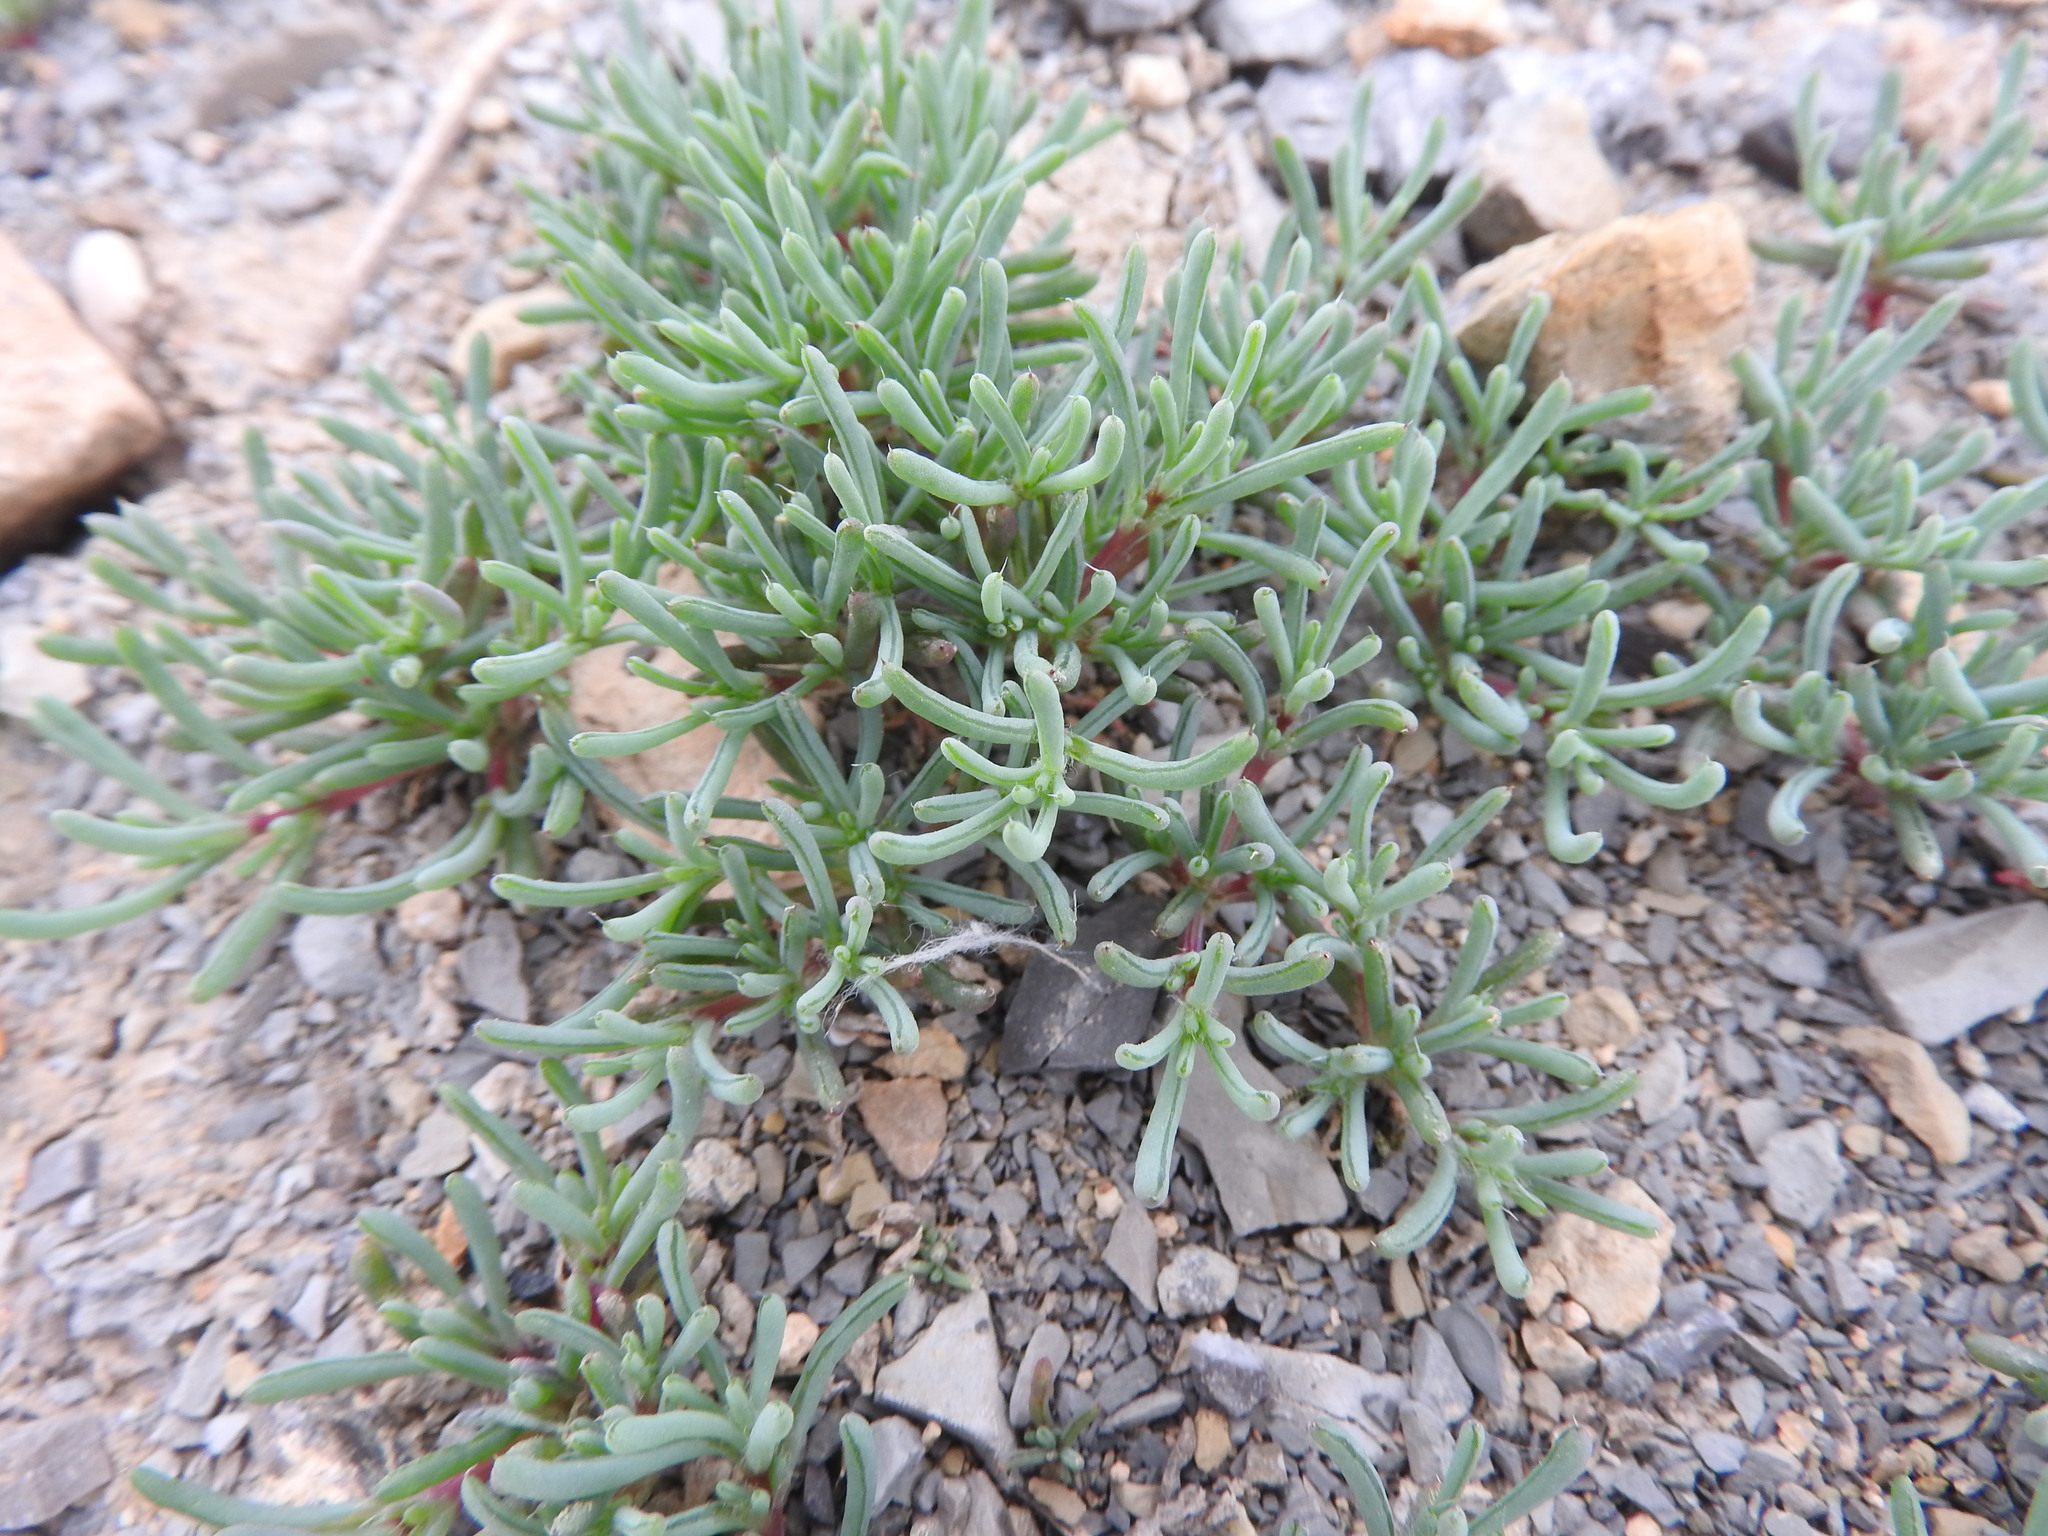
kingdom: Plantae
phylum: Tracheophyta
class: Magnoliopsida
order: Caryophyllales
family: Amaranthaceae
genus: Halogeton
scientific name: Halogeton sativus
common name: Barilla
